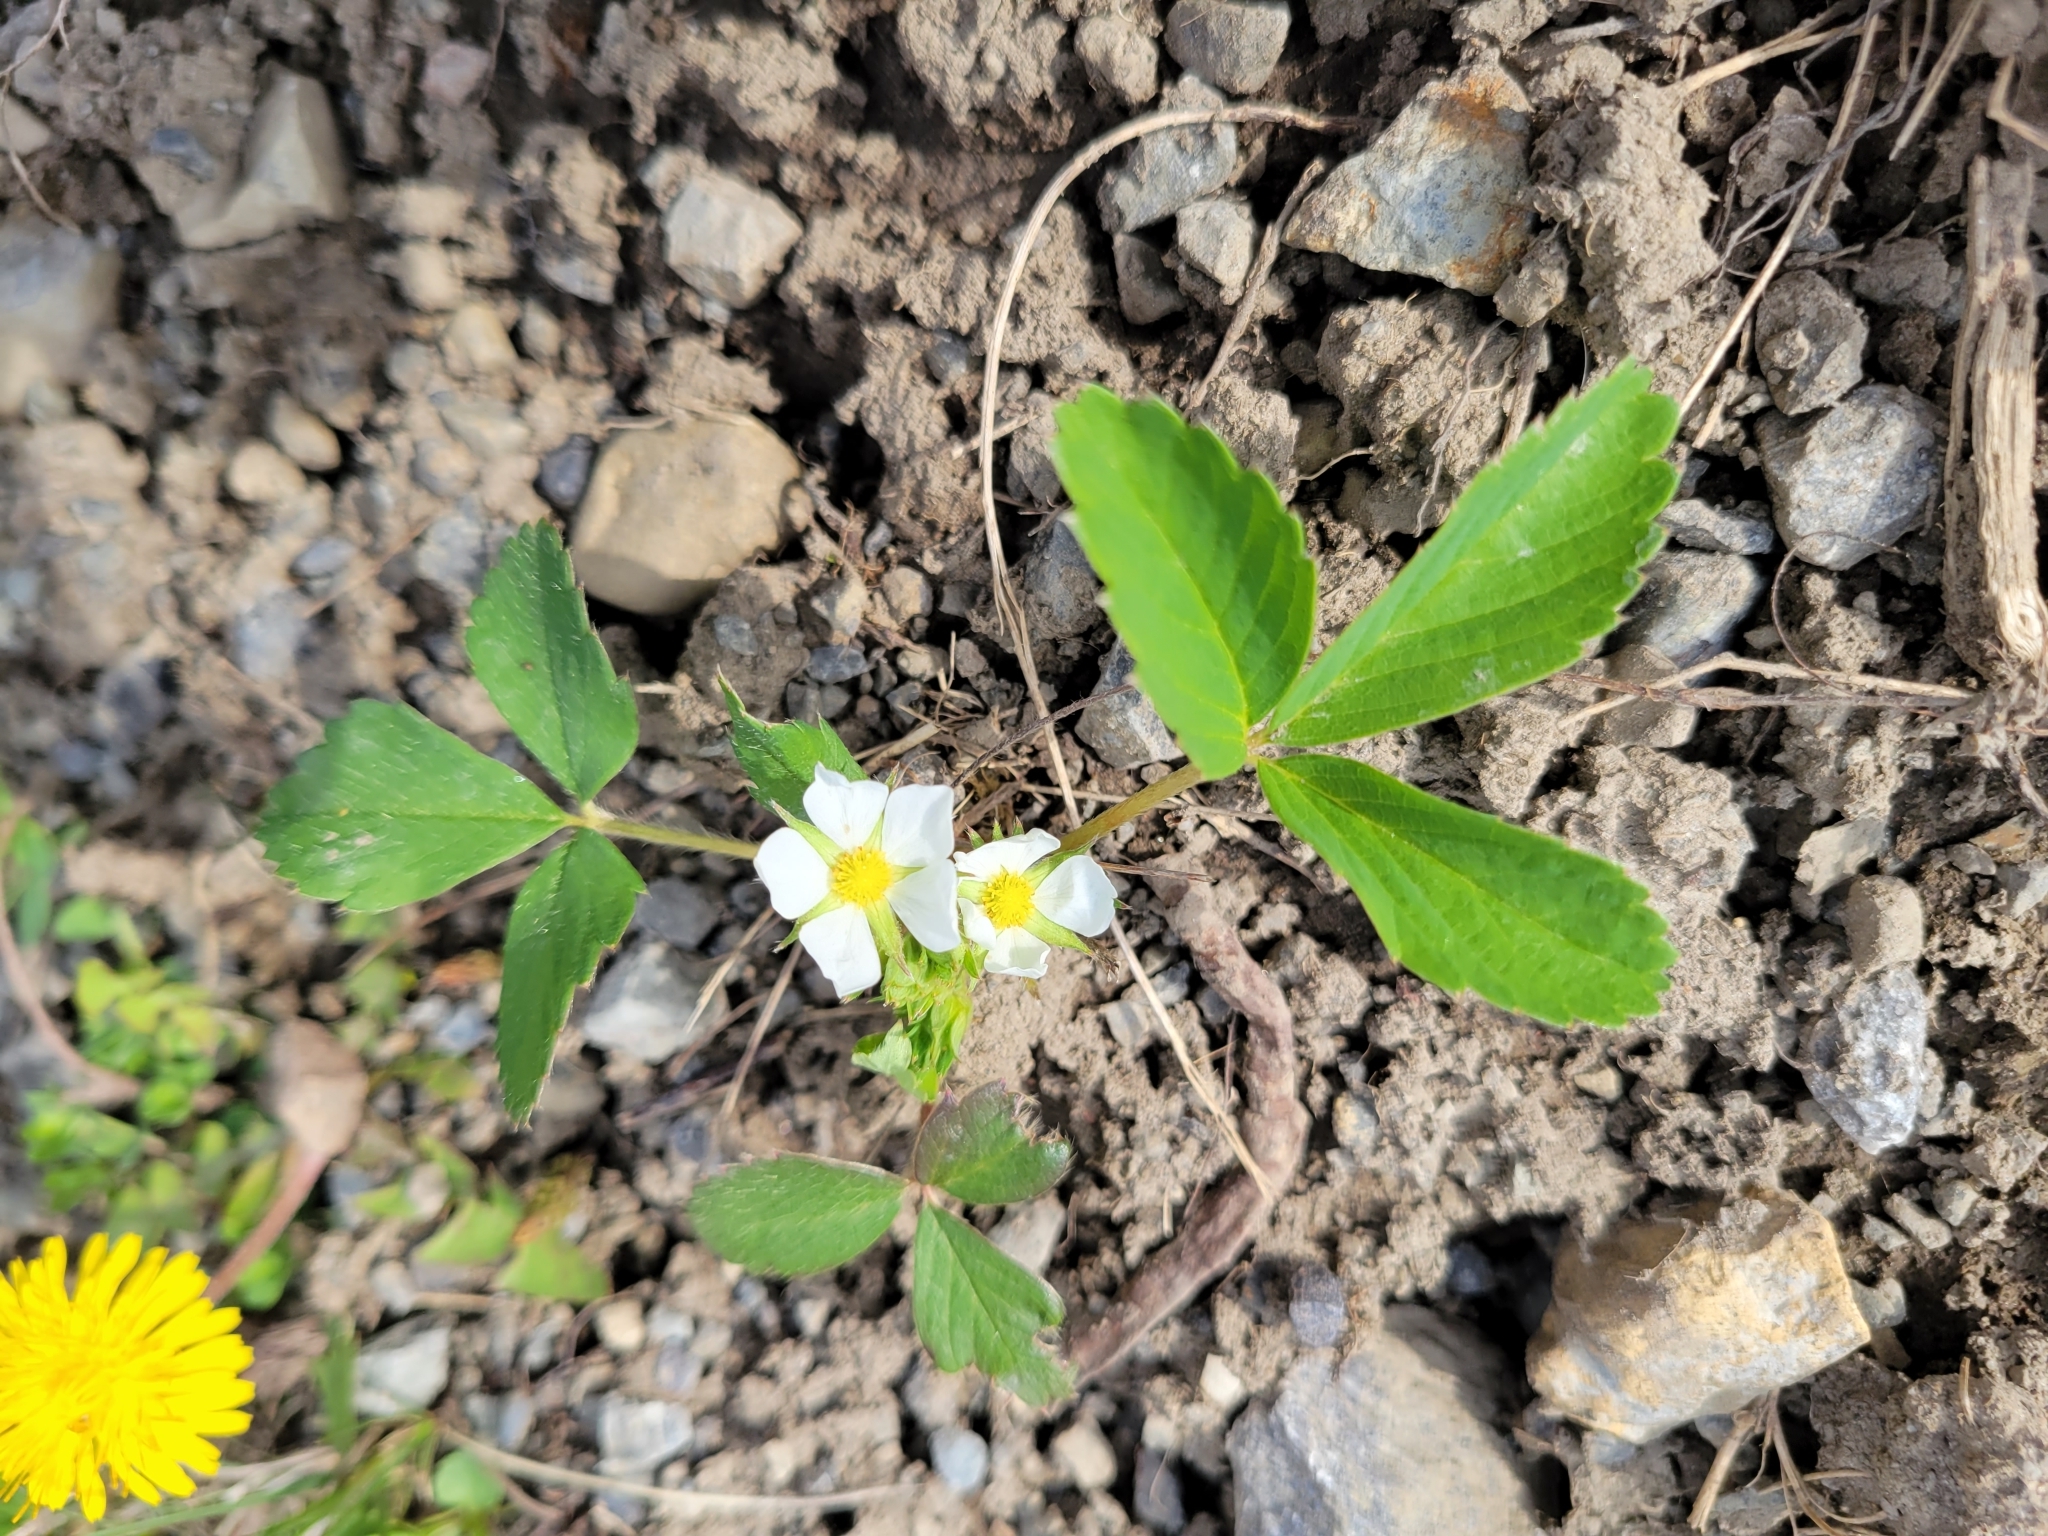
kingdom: Plantae
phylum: Tracheophyta
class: Magnoliopsida
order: Rosales
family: Rosaceae
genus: Fragaria
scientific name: Fragaria virginiana
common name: Thickleaved wild strawberry
